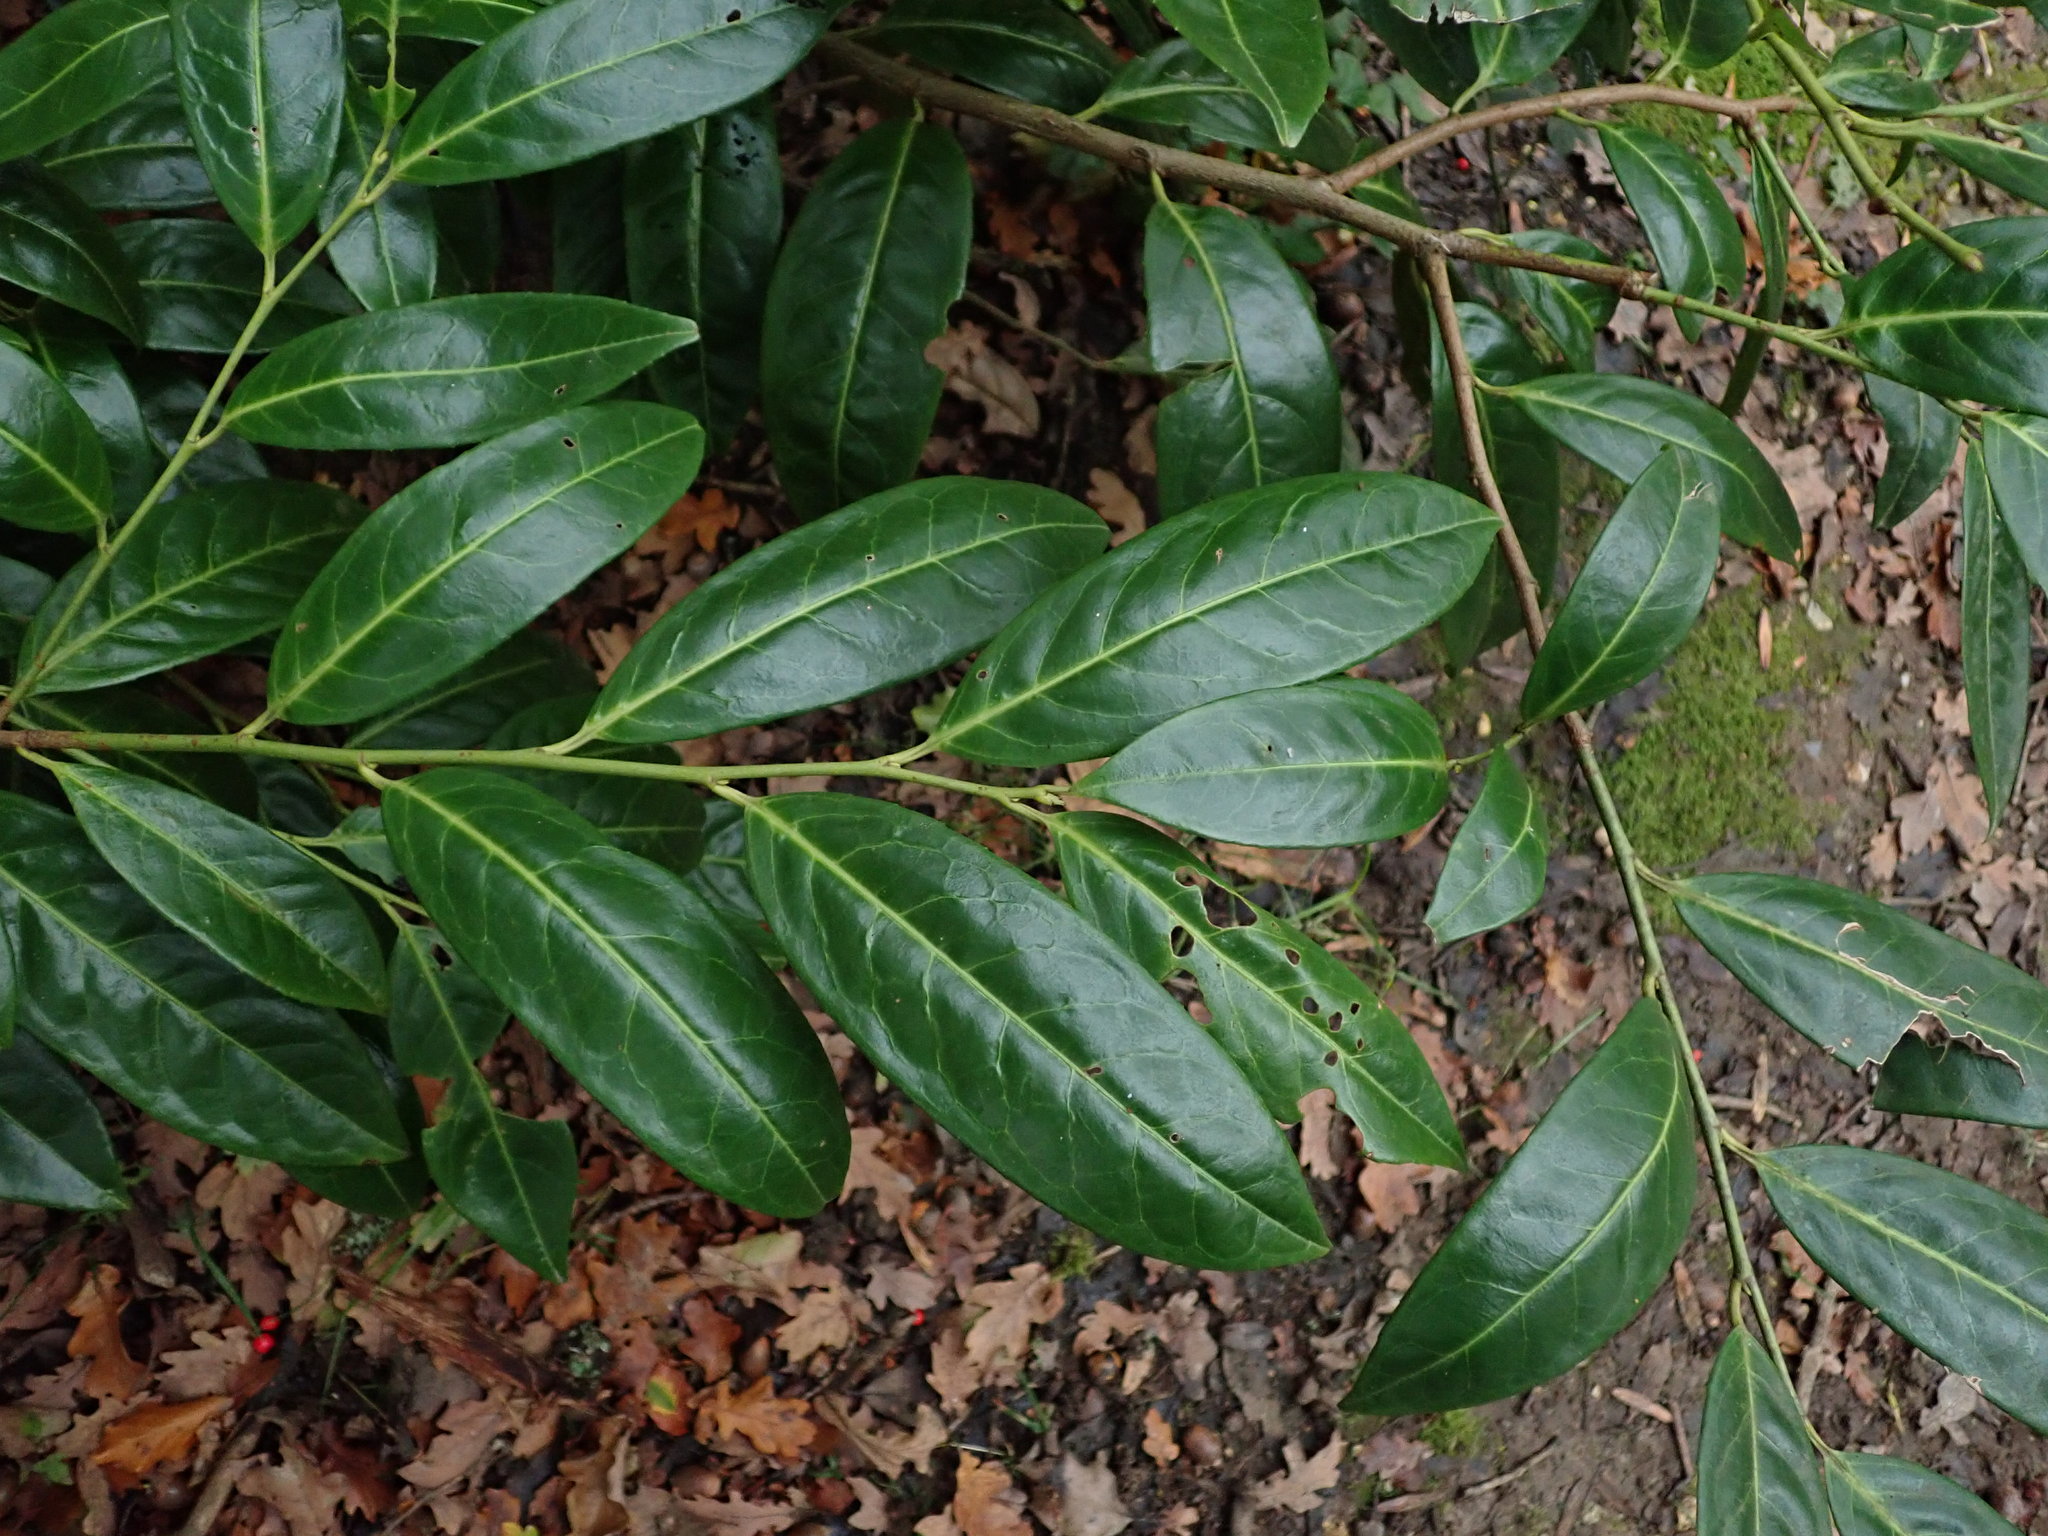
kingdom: Plantae
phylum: Tracheophyta
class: Magnoliopsida
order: Rosales
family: Rosaceae
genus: Prunus
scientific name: Prunus laurocerasus
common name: Cherry laurel
